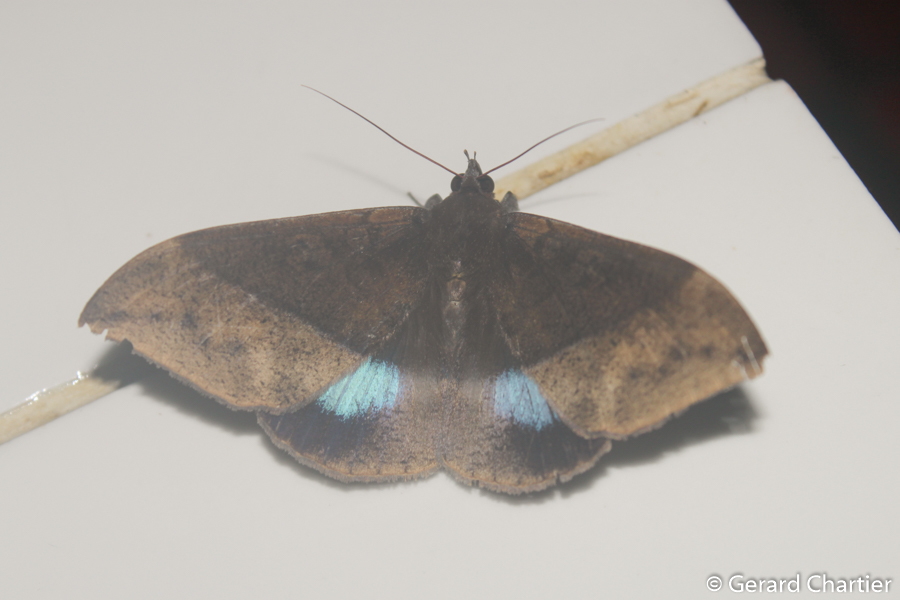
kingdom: Animalia
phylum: Arthropoda
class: Insecta
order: Lepidoptera
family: Erebidae
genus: Ischyja
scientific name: Ischyja inferna
